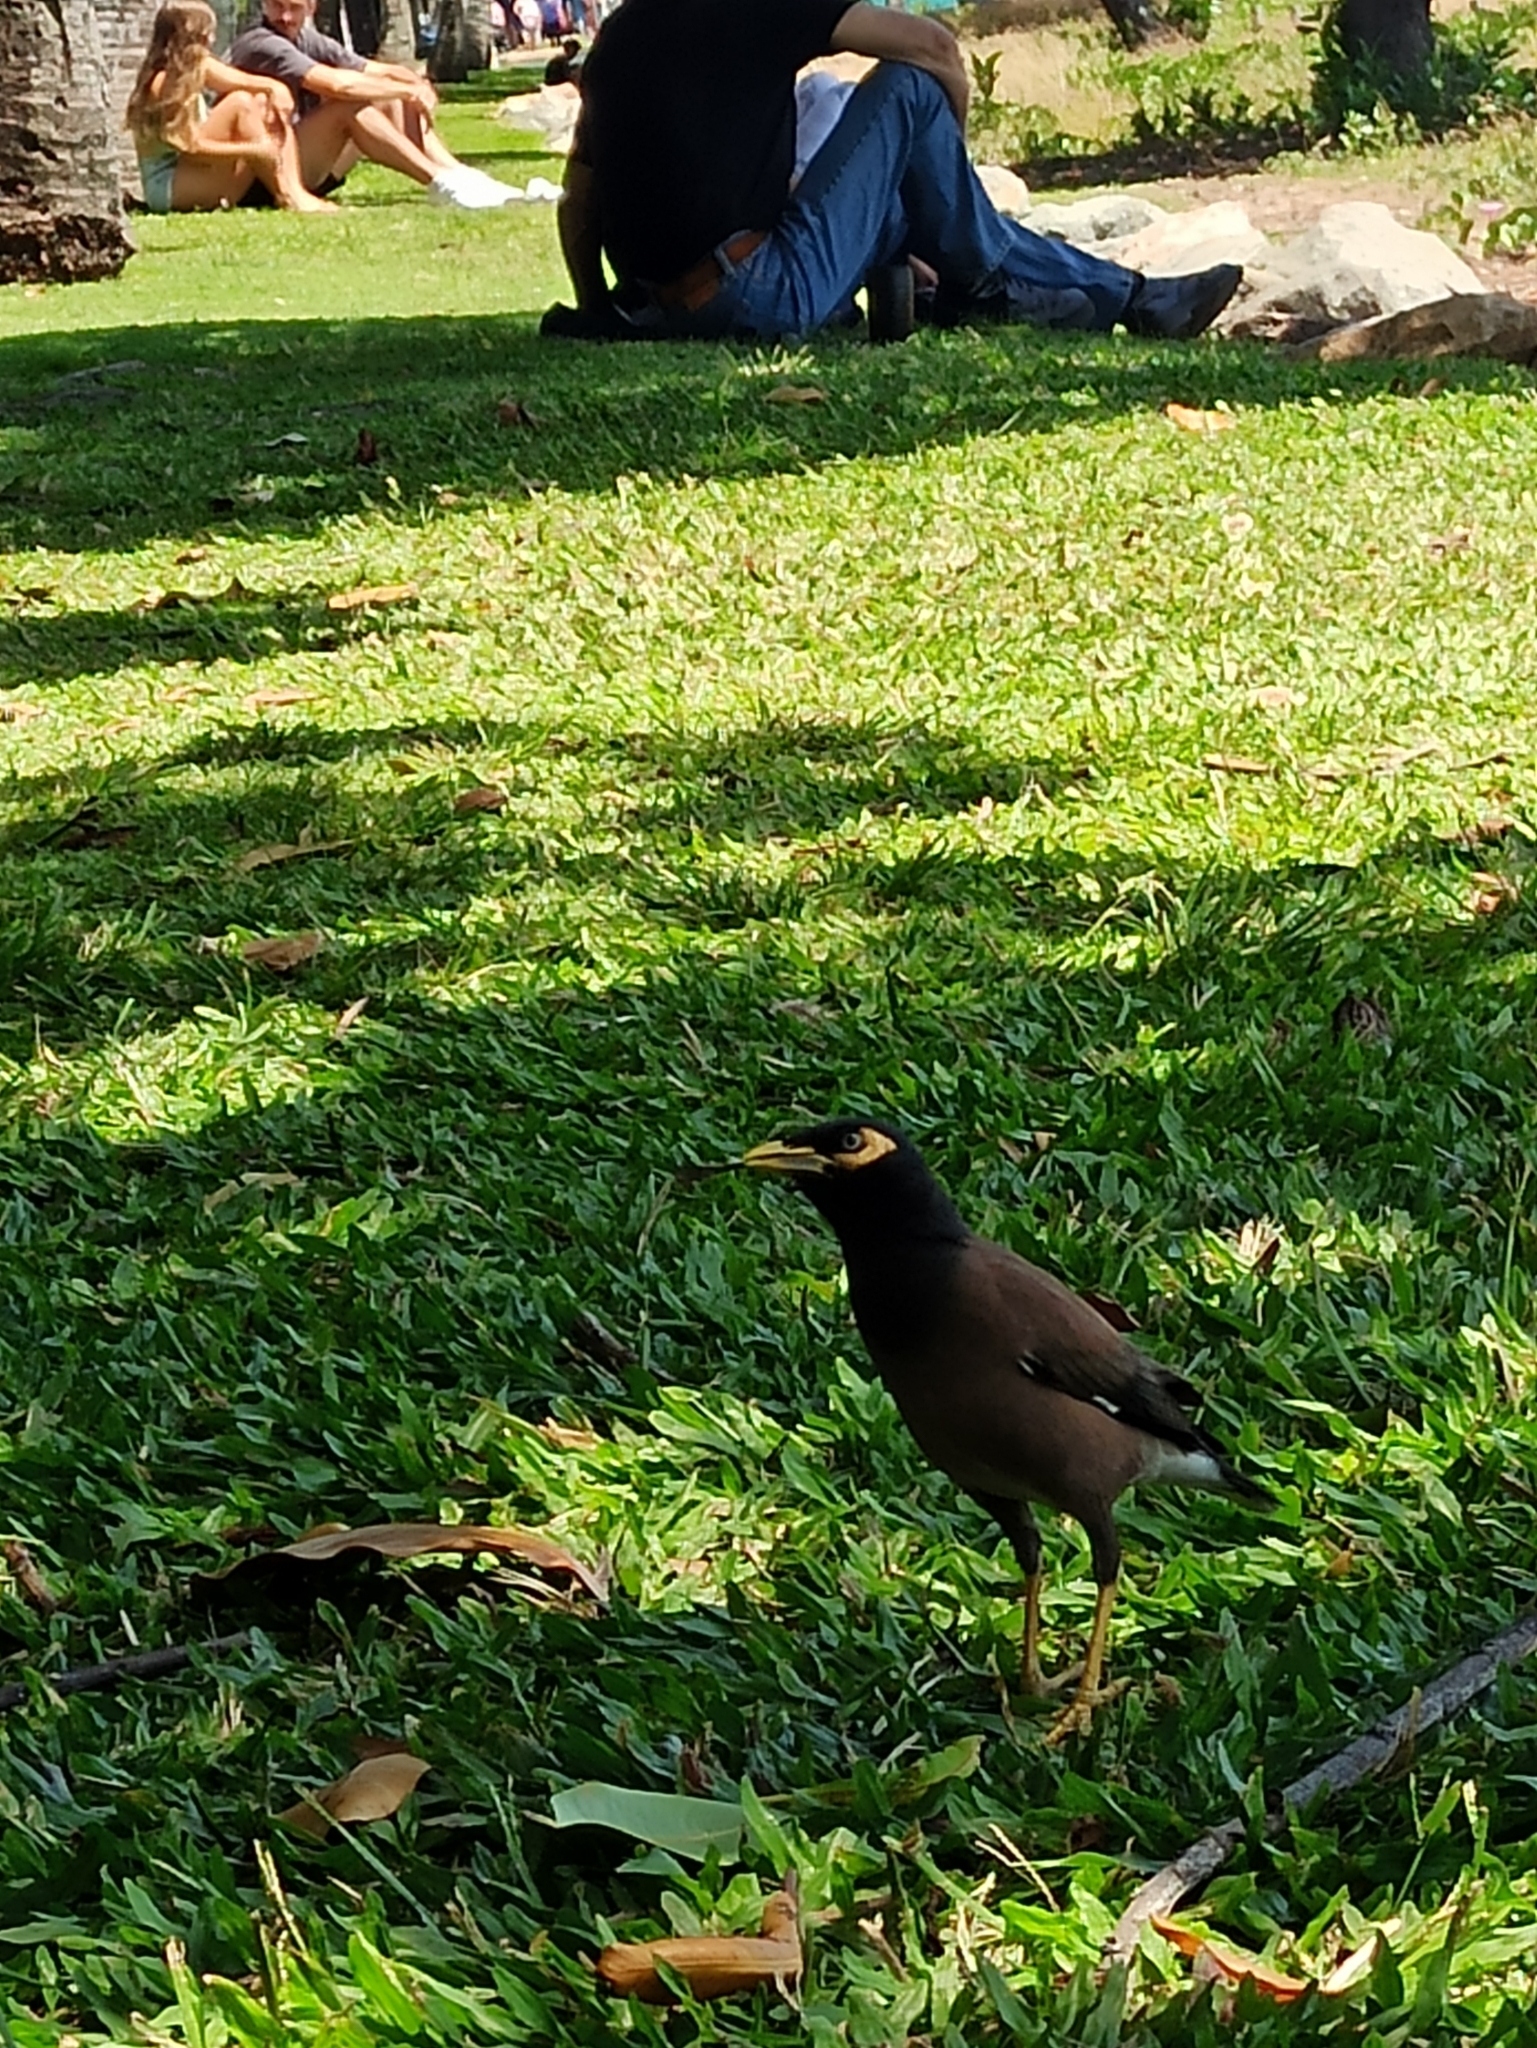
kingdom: Animalia
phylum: Chordata
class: Aves
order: Passeriformes
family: Sturnidae
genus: Acridotheres
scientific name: Acridotheres tristis
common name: Common myna
